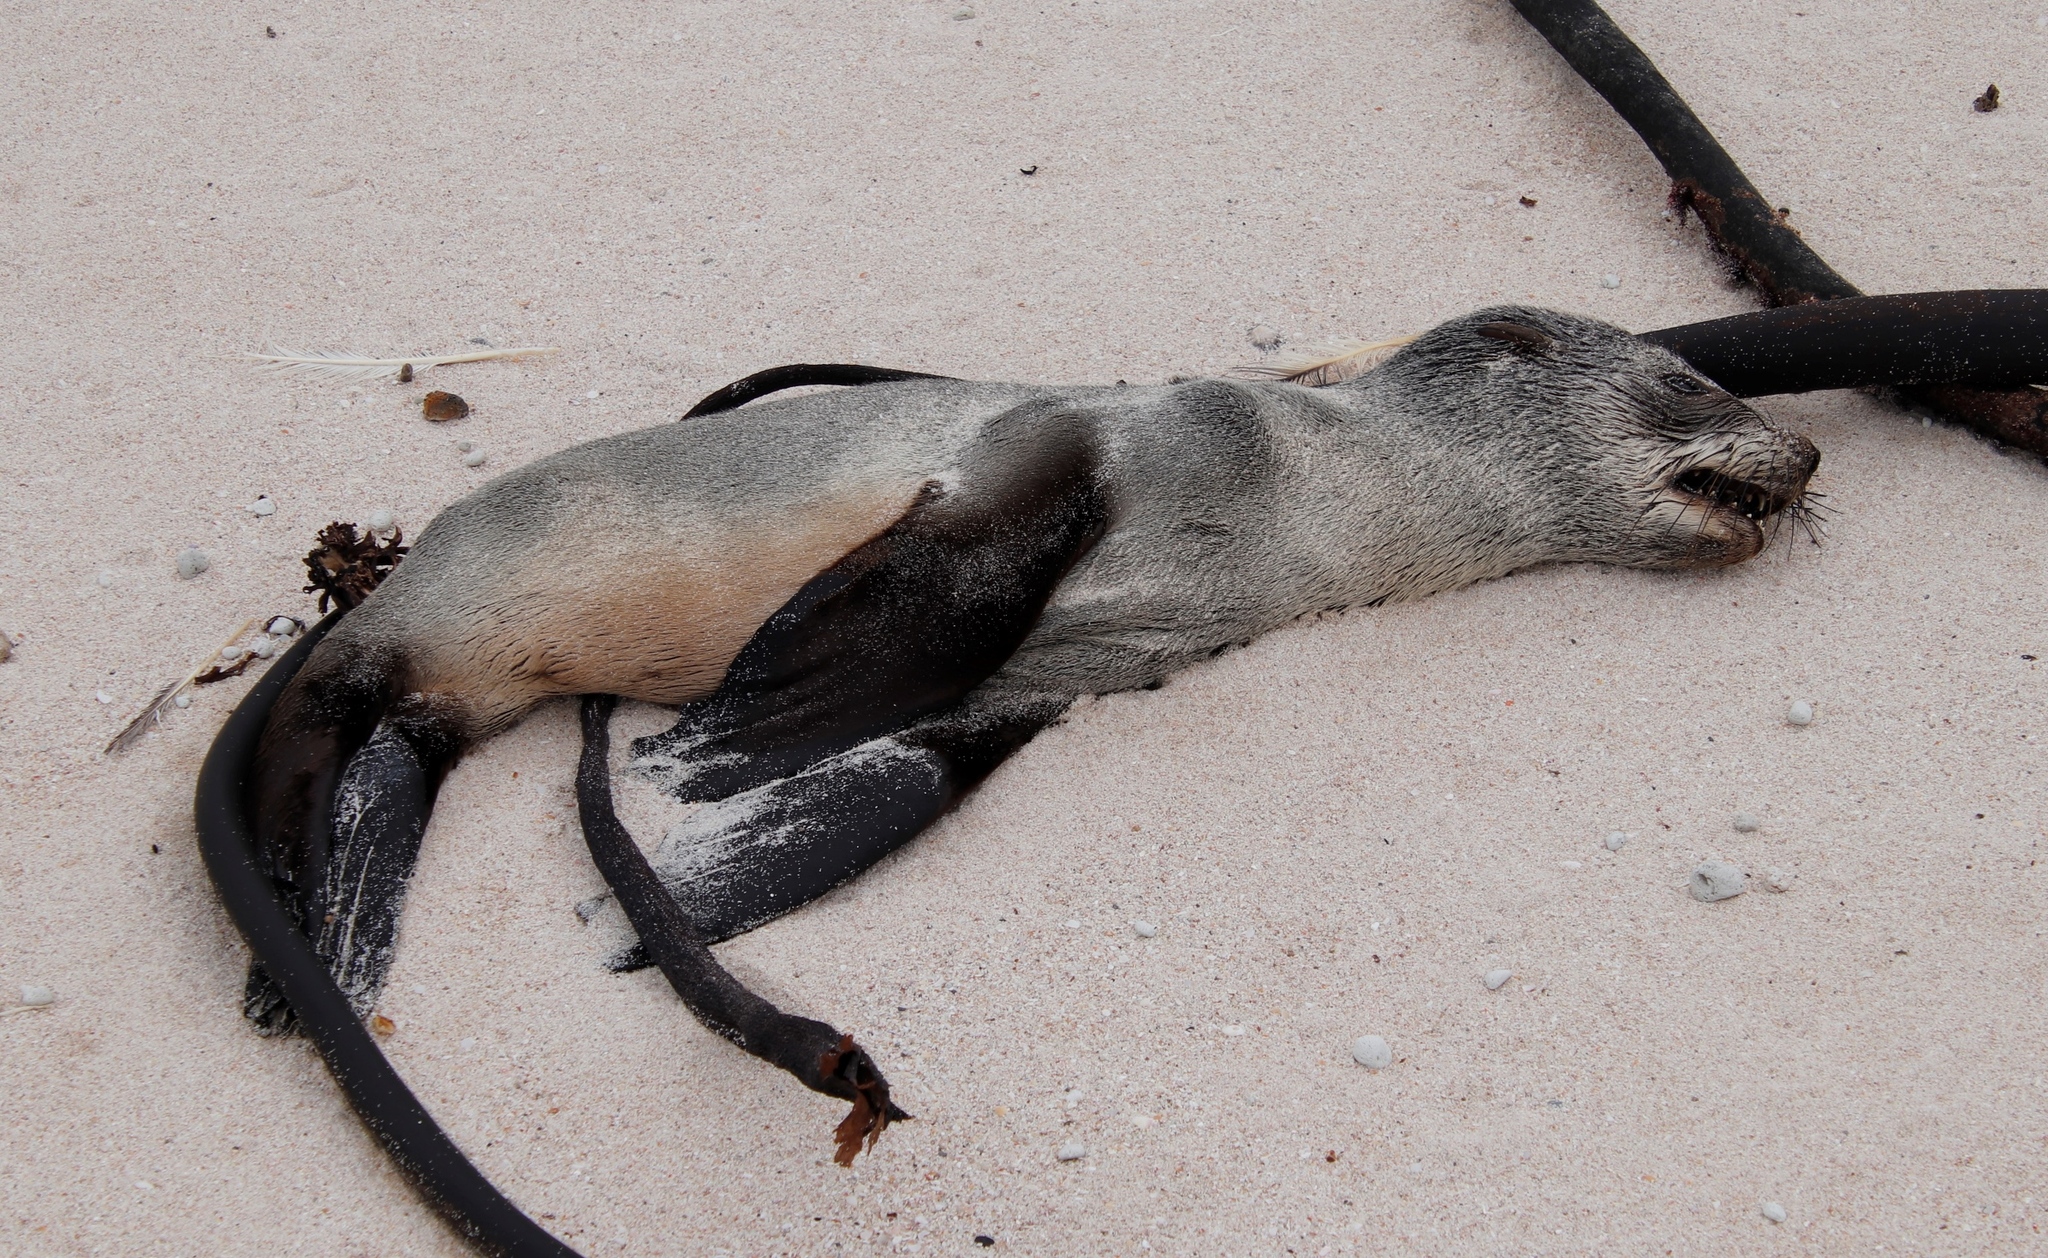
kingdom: Animalia
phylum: Chordata
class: Mammalia
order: Carnivora
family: Otariidae
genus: Arctocephalus
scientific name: Arctocephalus pusillus
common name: Brown fur seal
